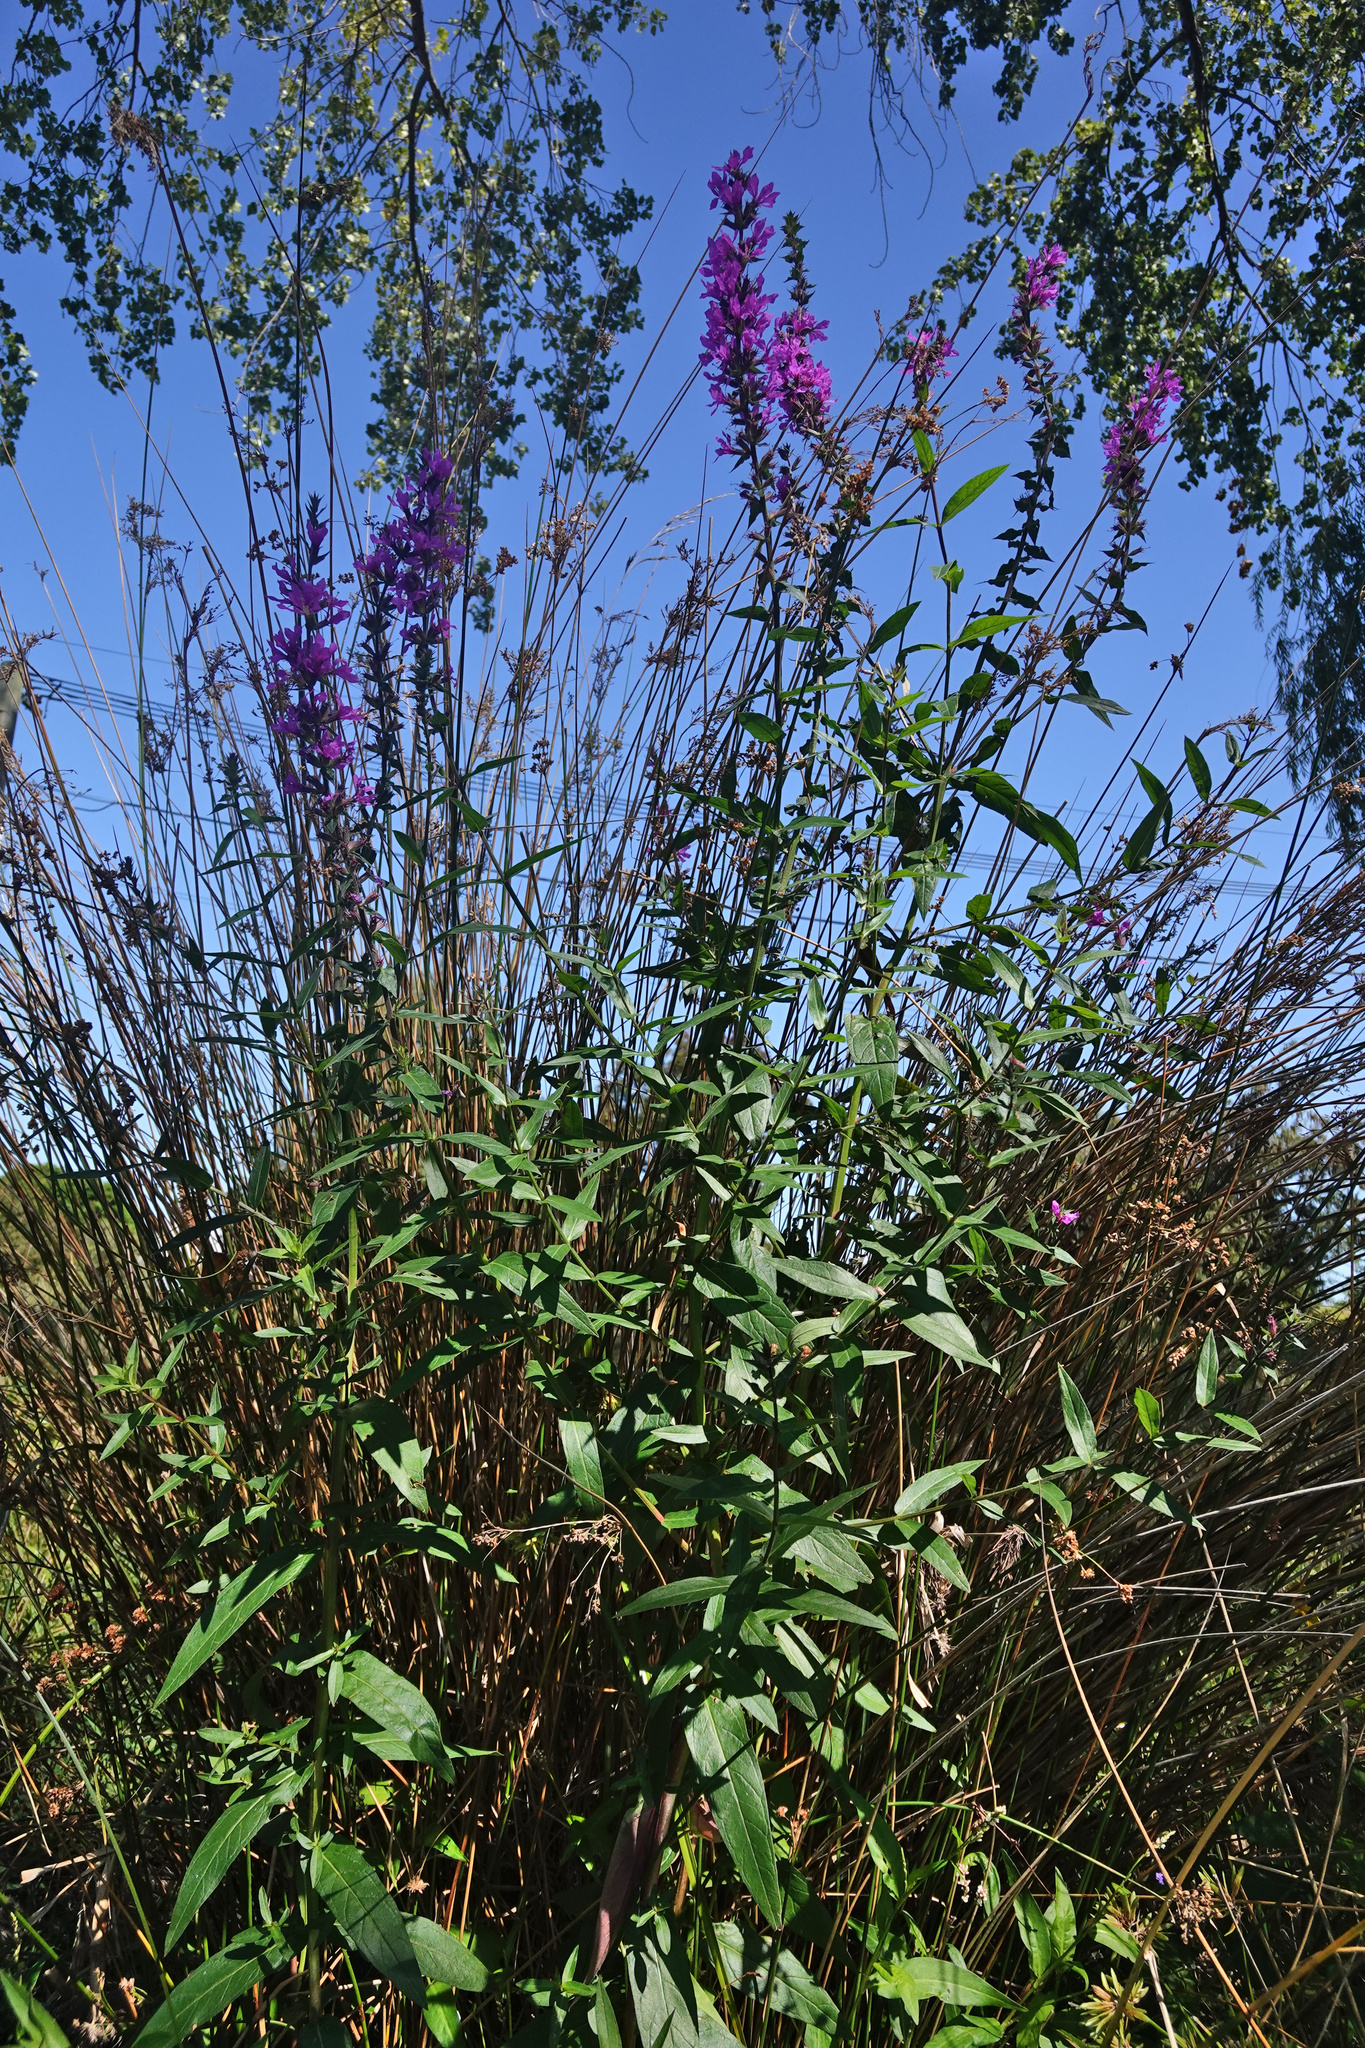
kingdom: Plantae
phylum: Tracheophyta
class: Magnoliopsida
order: Myrtales
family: Lythraceae
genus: Lythrum
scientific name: Lythrum salicaria
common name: Purple loosestrife
